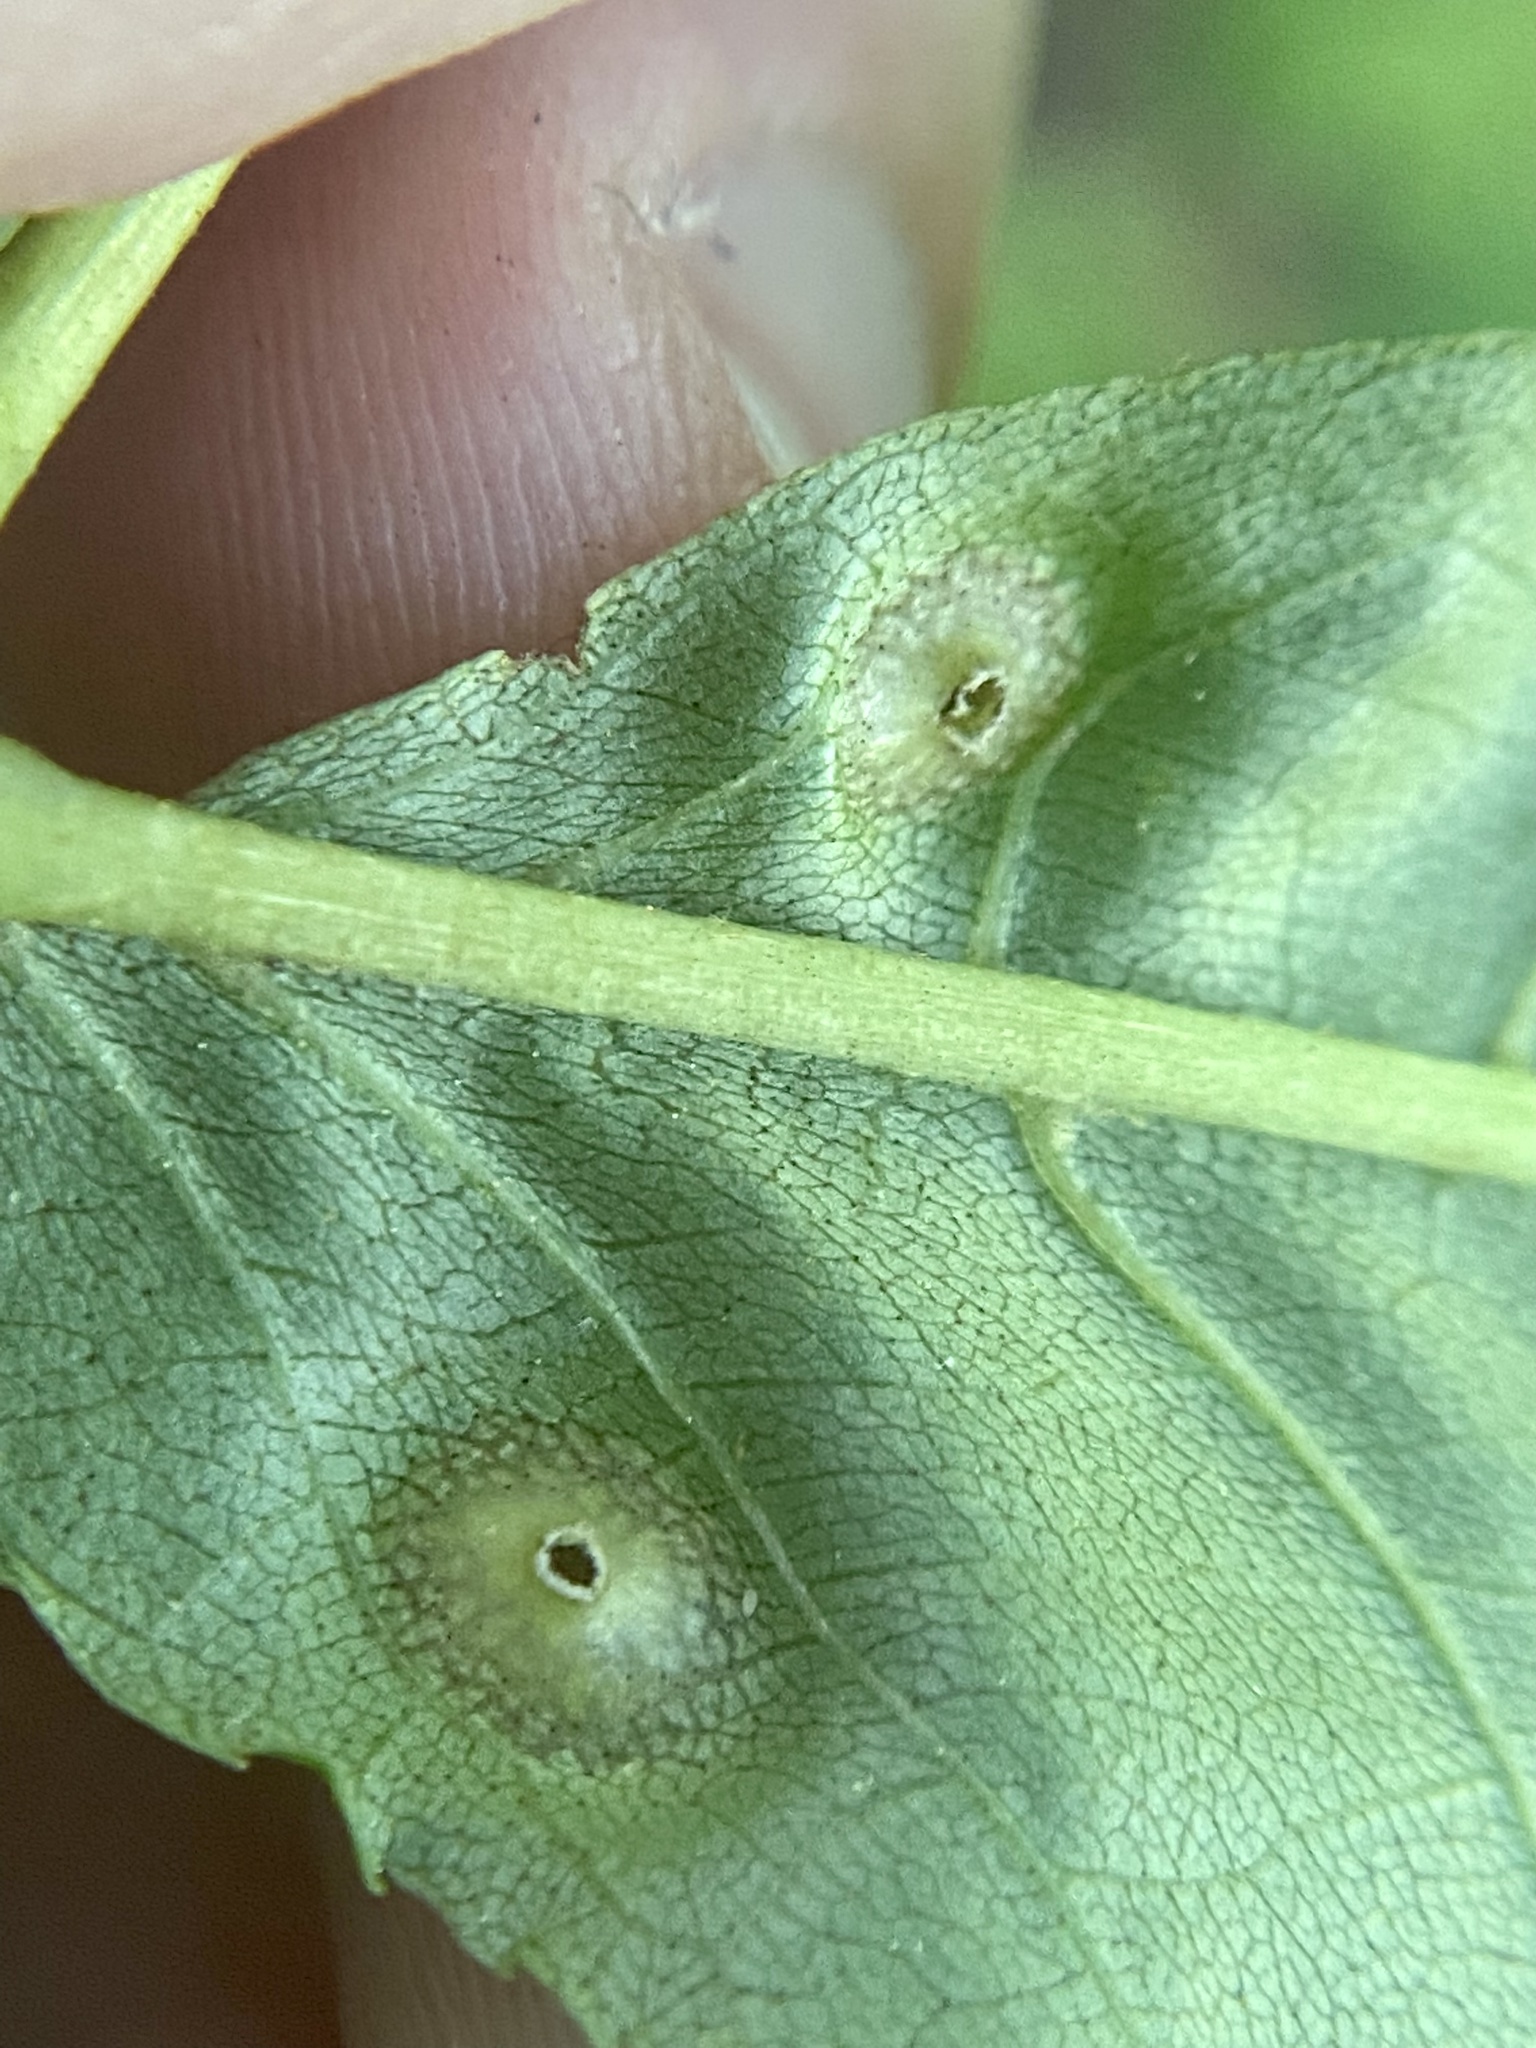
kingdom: Animalia
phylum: Arthropoda
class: Insecta
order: Hemiptera
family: Phylloxeridae
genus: Phylloxera
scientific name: Phylloxera foveola
